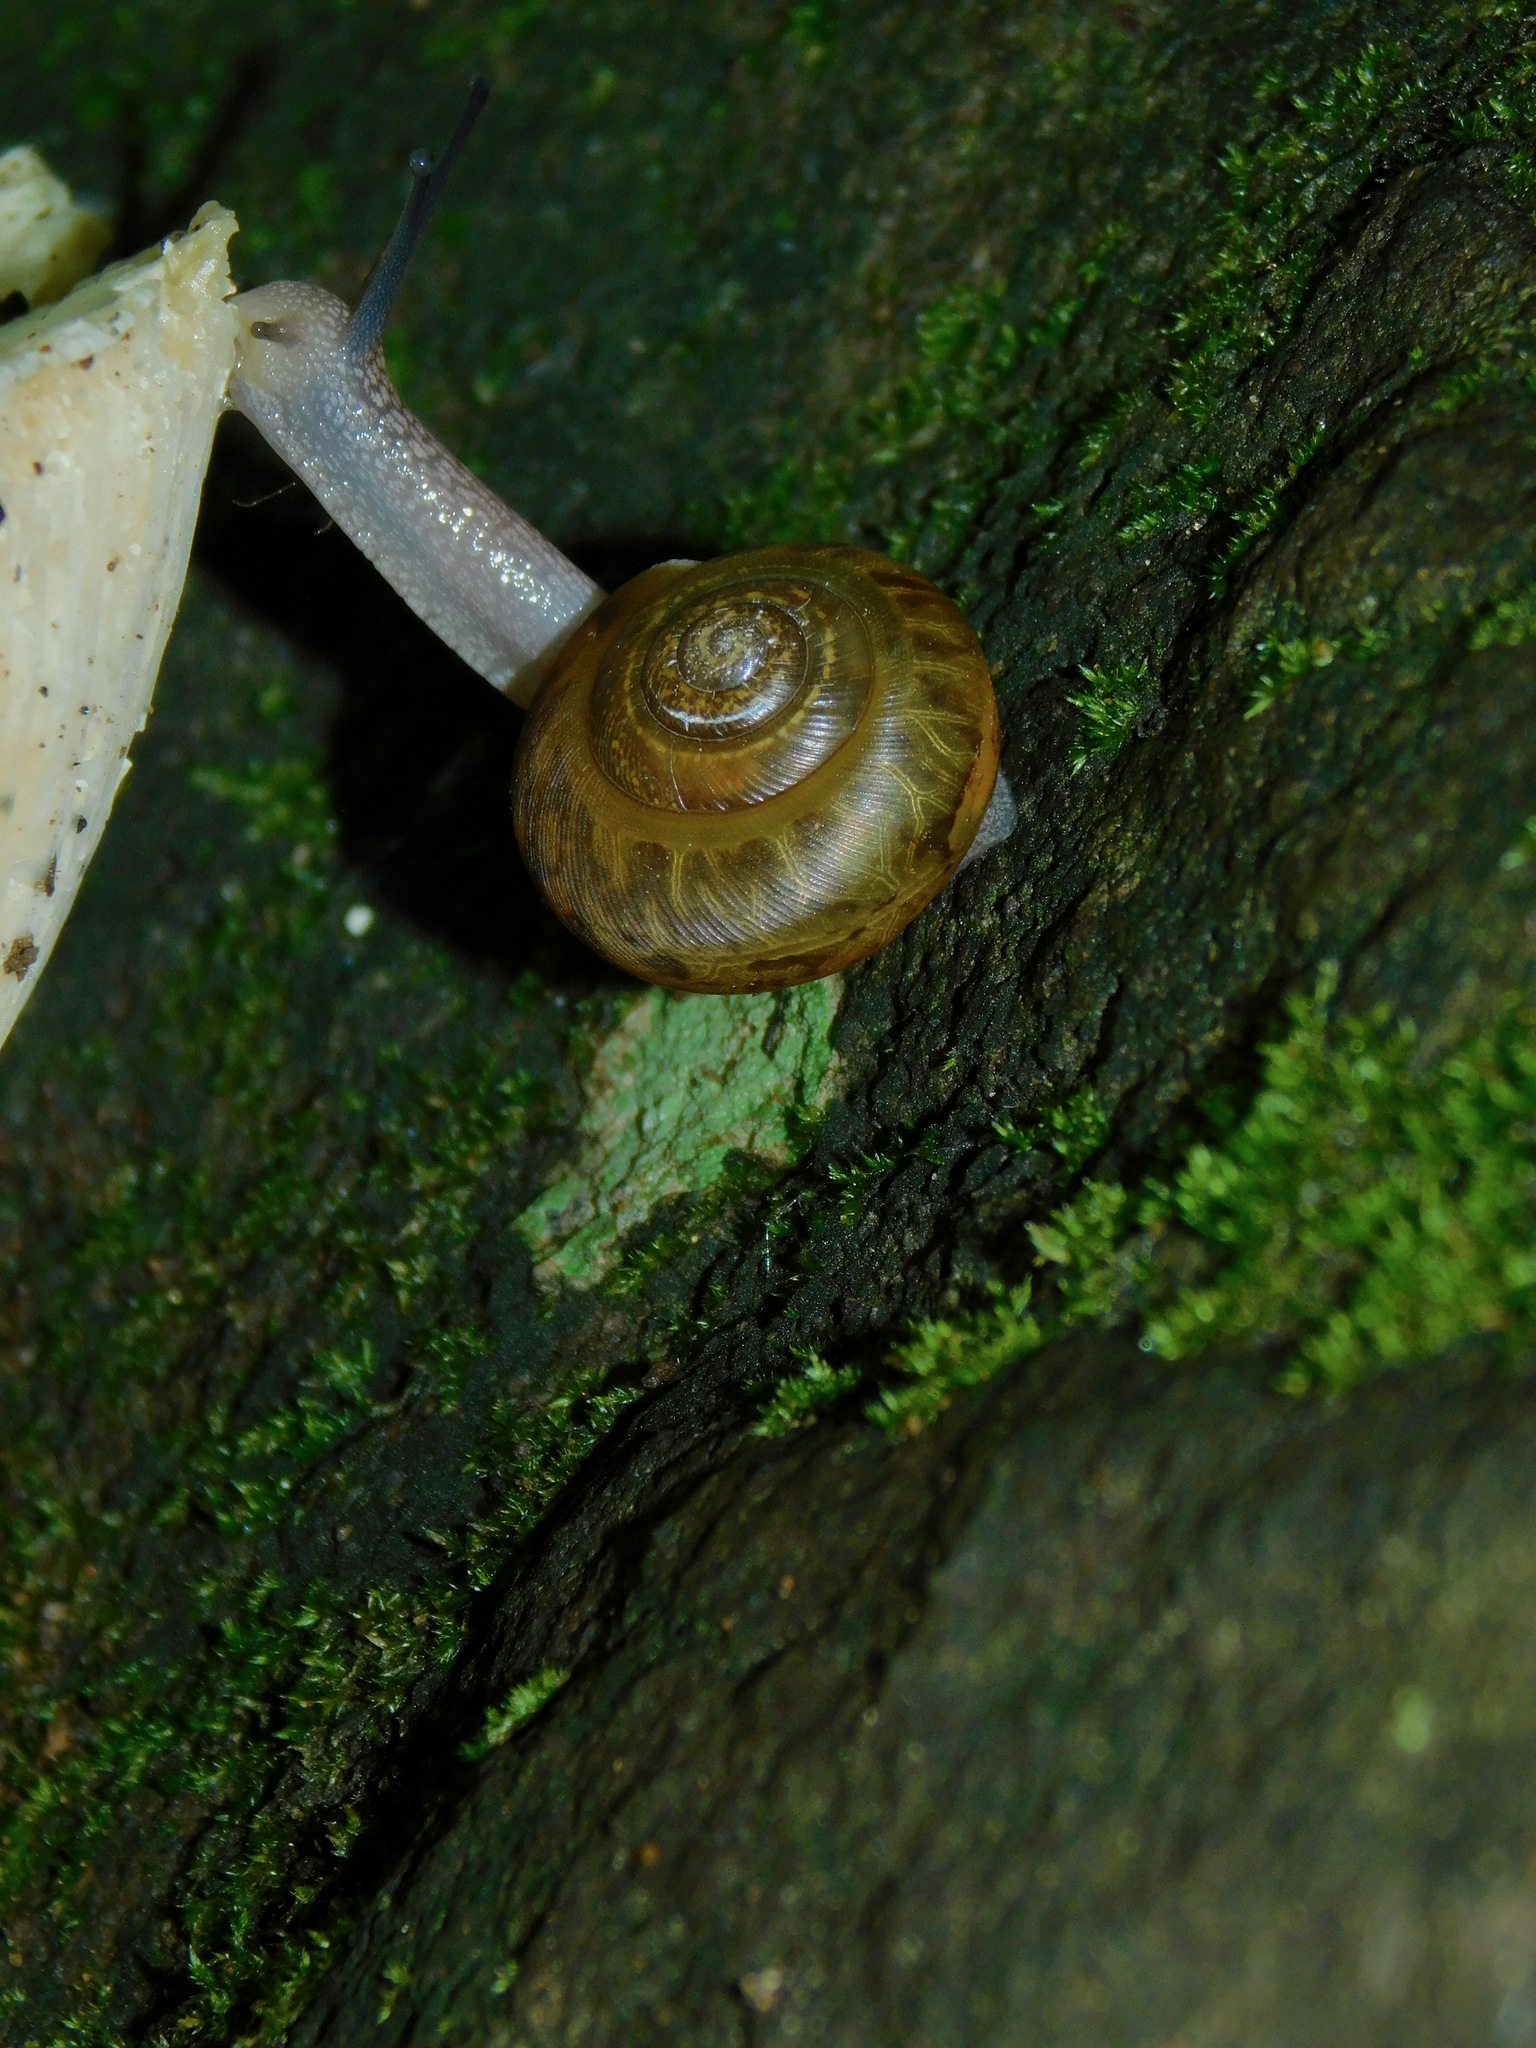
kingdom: Animalia
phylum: Mollusca
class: Gastropoda
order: Stylommatophora
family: Polygyridae
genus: Mesodon
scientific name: Mesodon normalis
